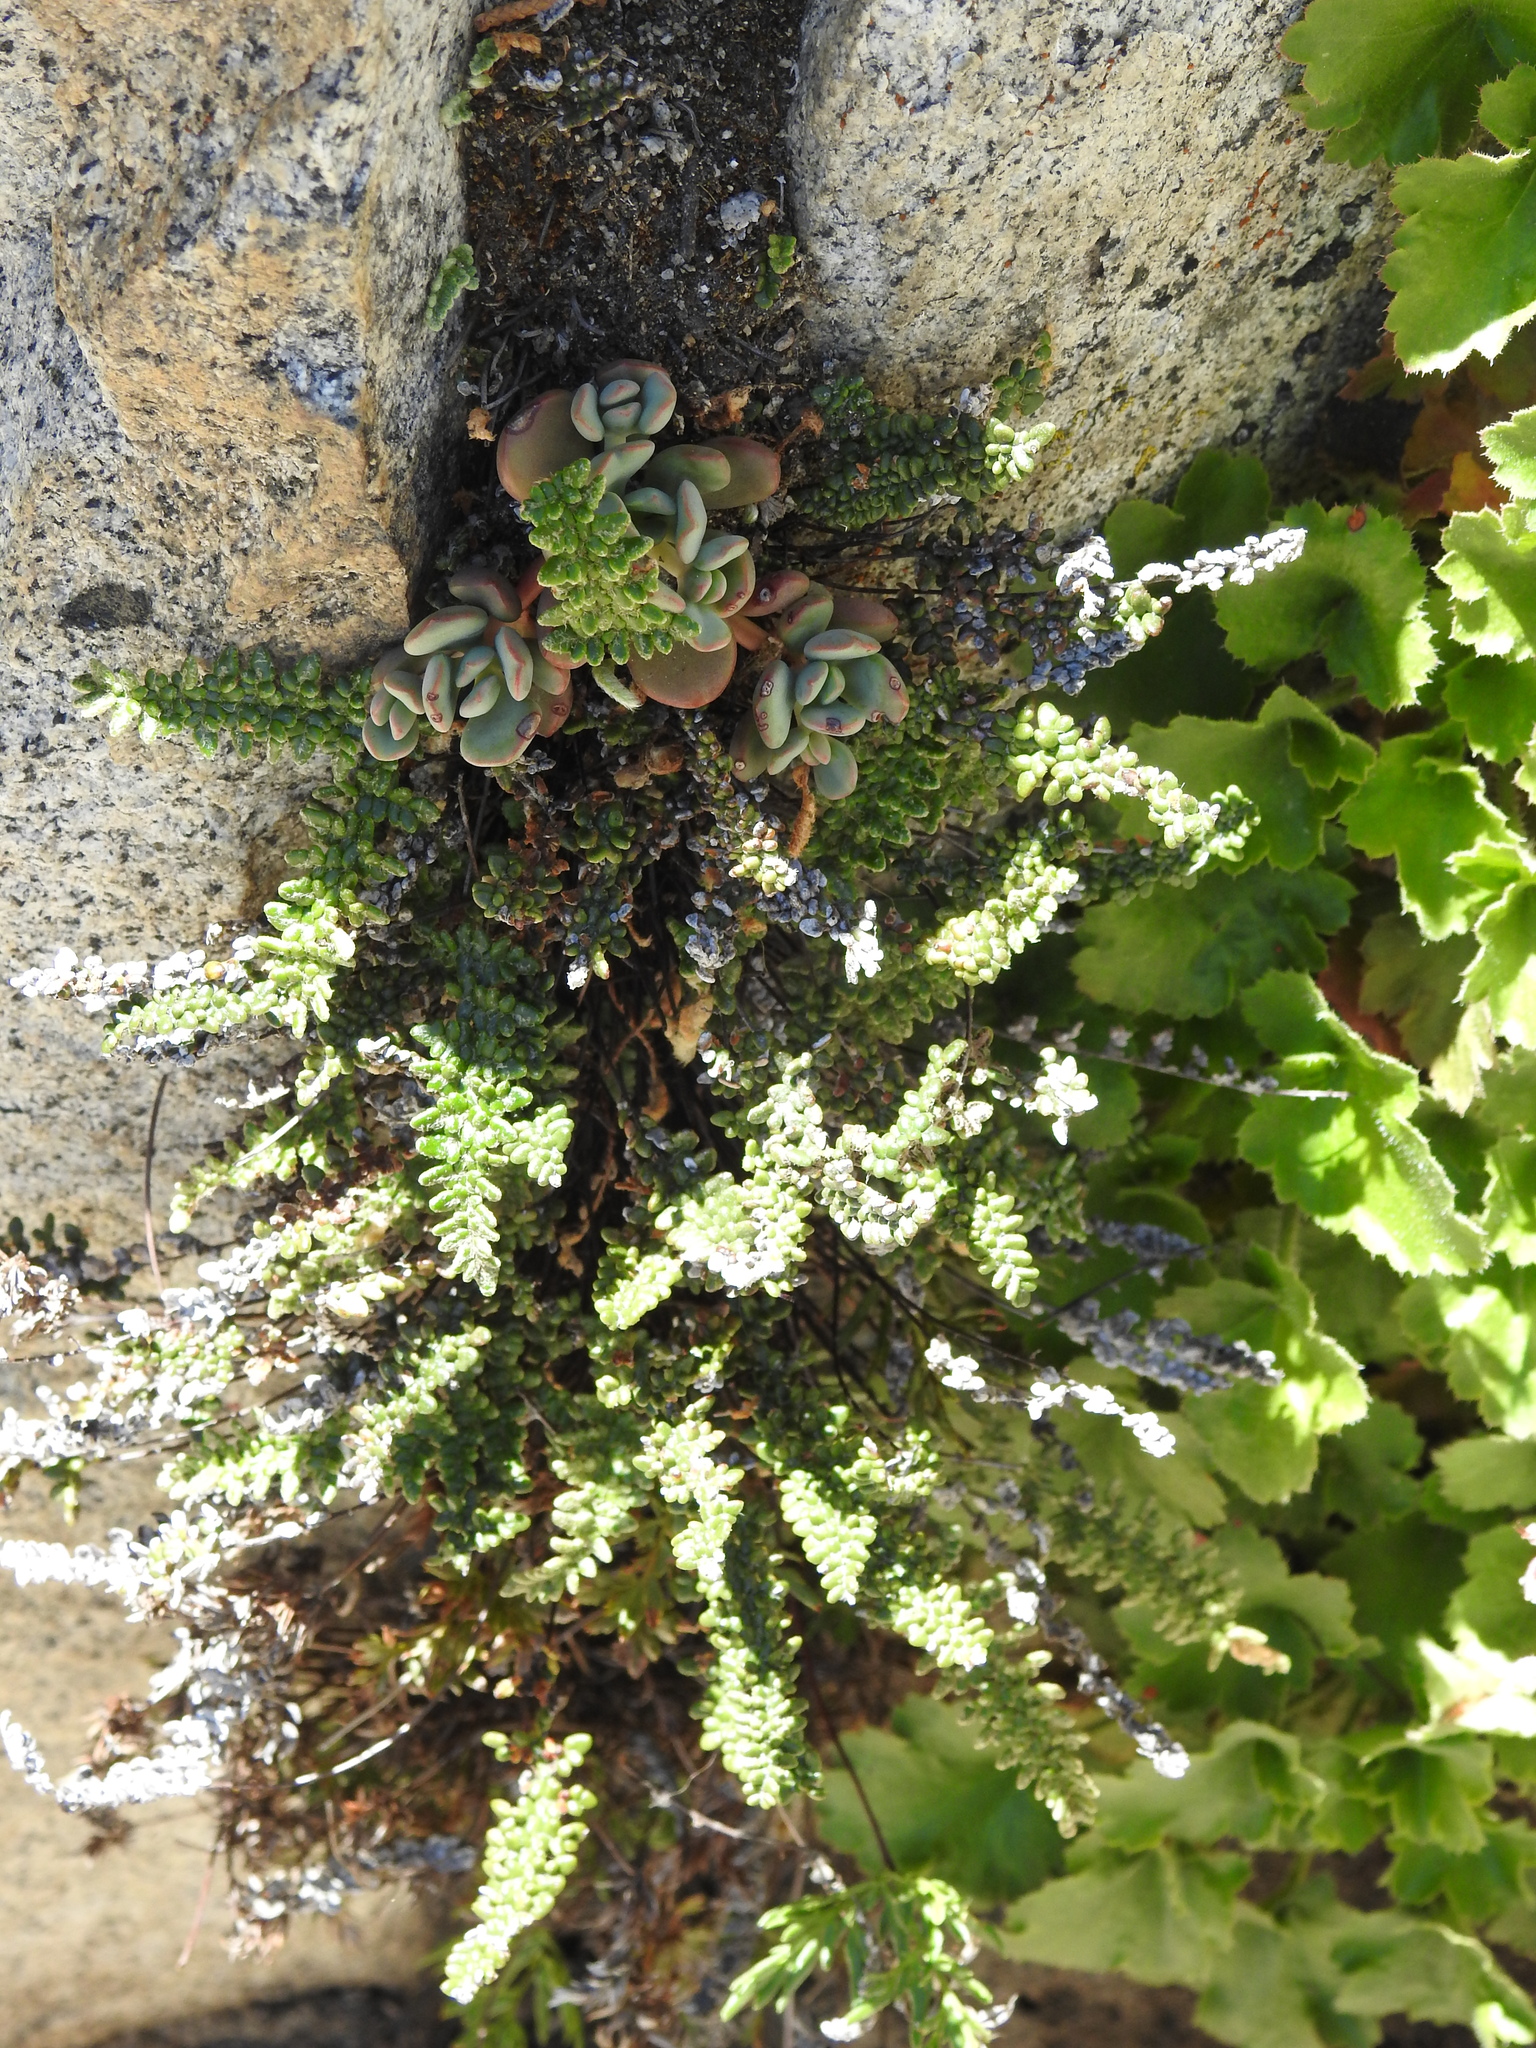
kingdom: Plantae
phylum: Tracheophyta
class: Polypodiopsida
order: Polypodiales
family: Pteridaceae
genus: Myriopteris
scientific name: Myriopteris gracillima
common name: Lace fern
